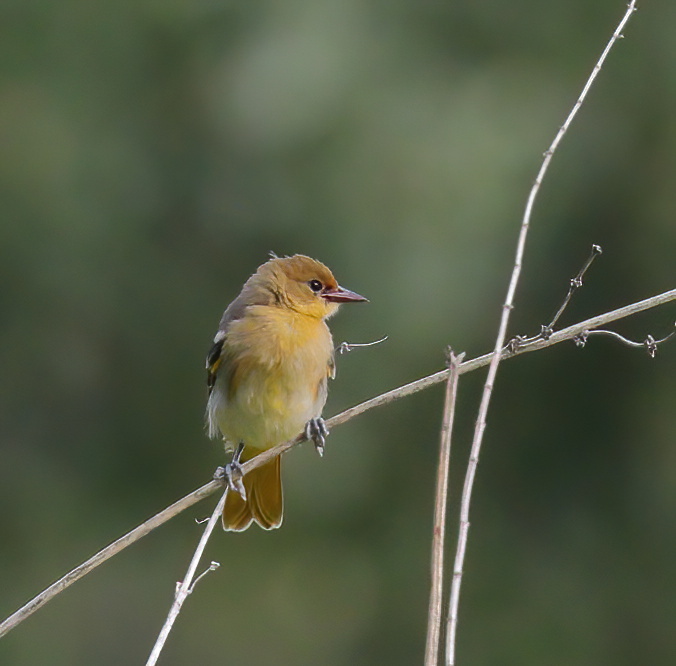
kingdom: Animalia
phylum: Chordata
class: Aves
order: Passeriformes
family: Icteridae
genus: Icterus
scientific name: Icterus galbula
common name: Baltimore oriole
